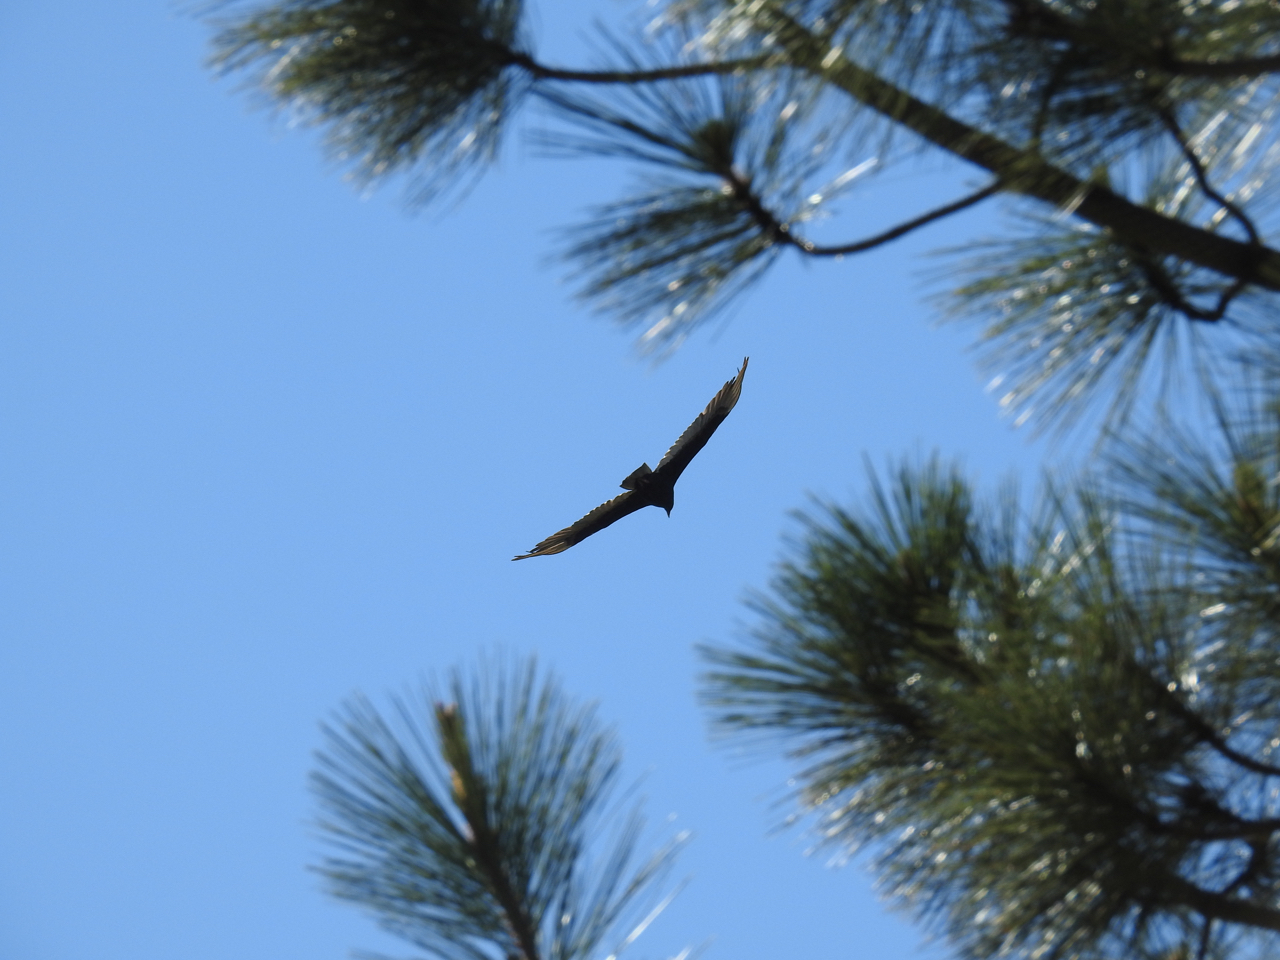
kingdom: Animalia
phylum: Chordata
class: Aves
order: Accipitriformes
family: Cathartidae
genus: Cathartes
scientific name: Cathartes aura
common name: Turkey vulture
